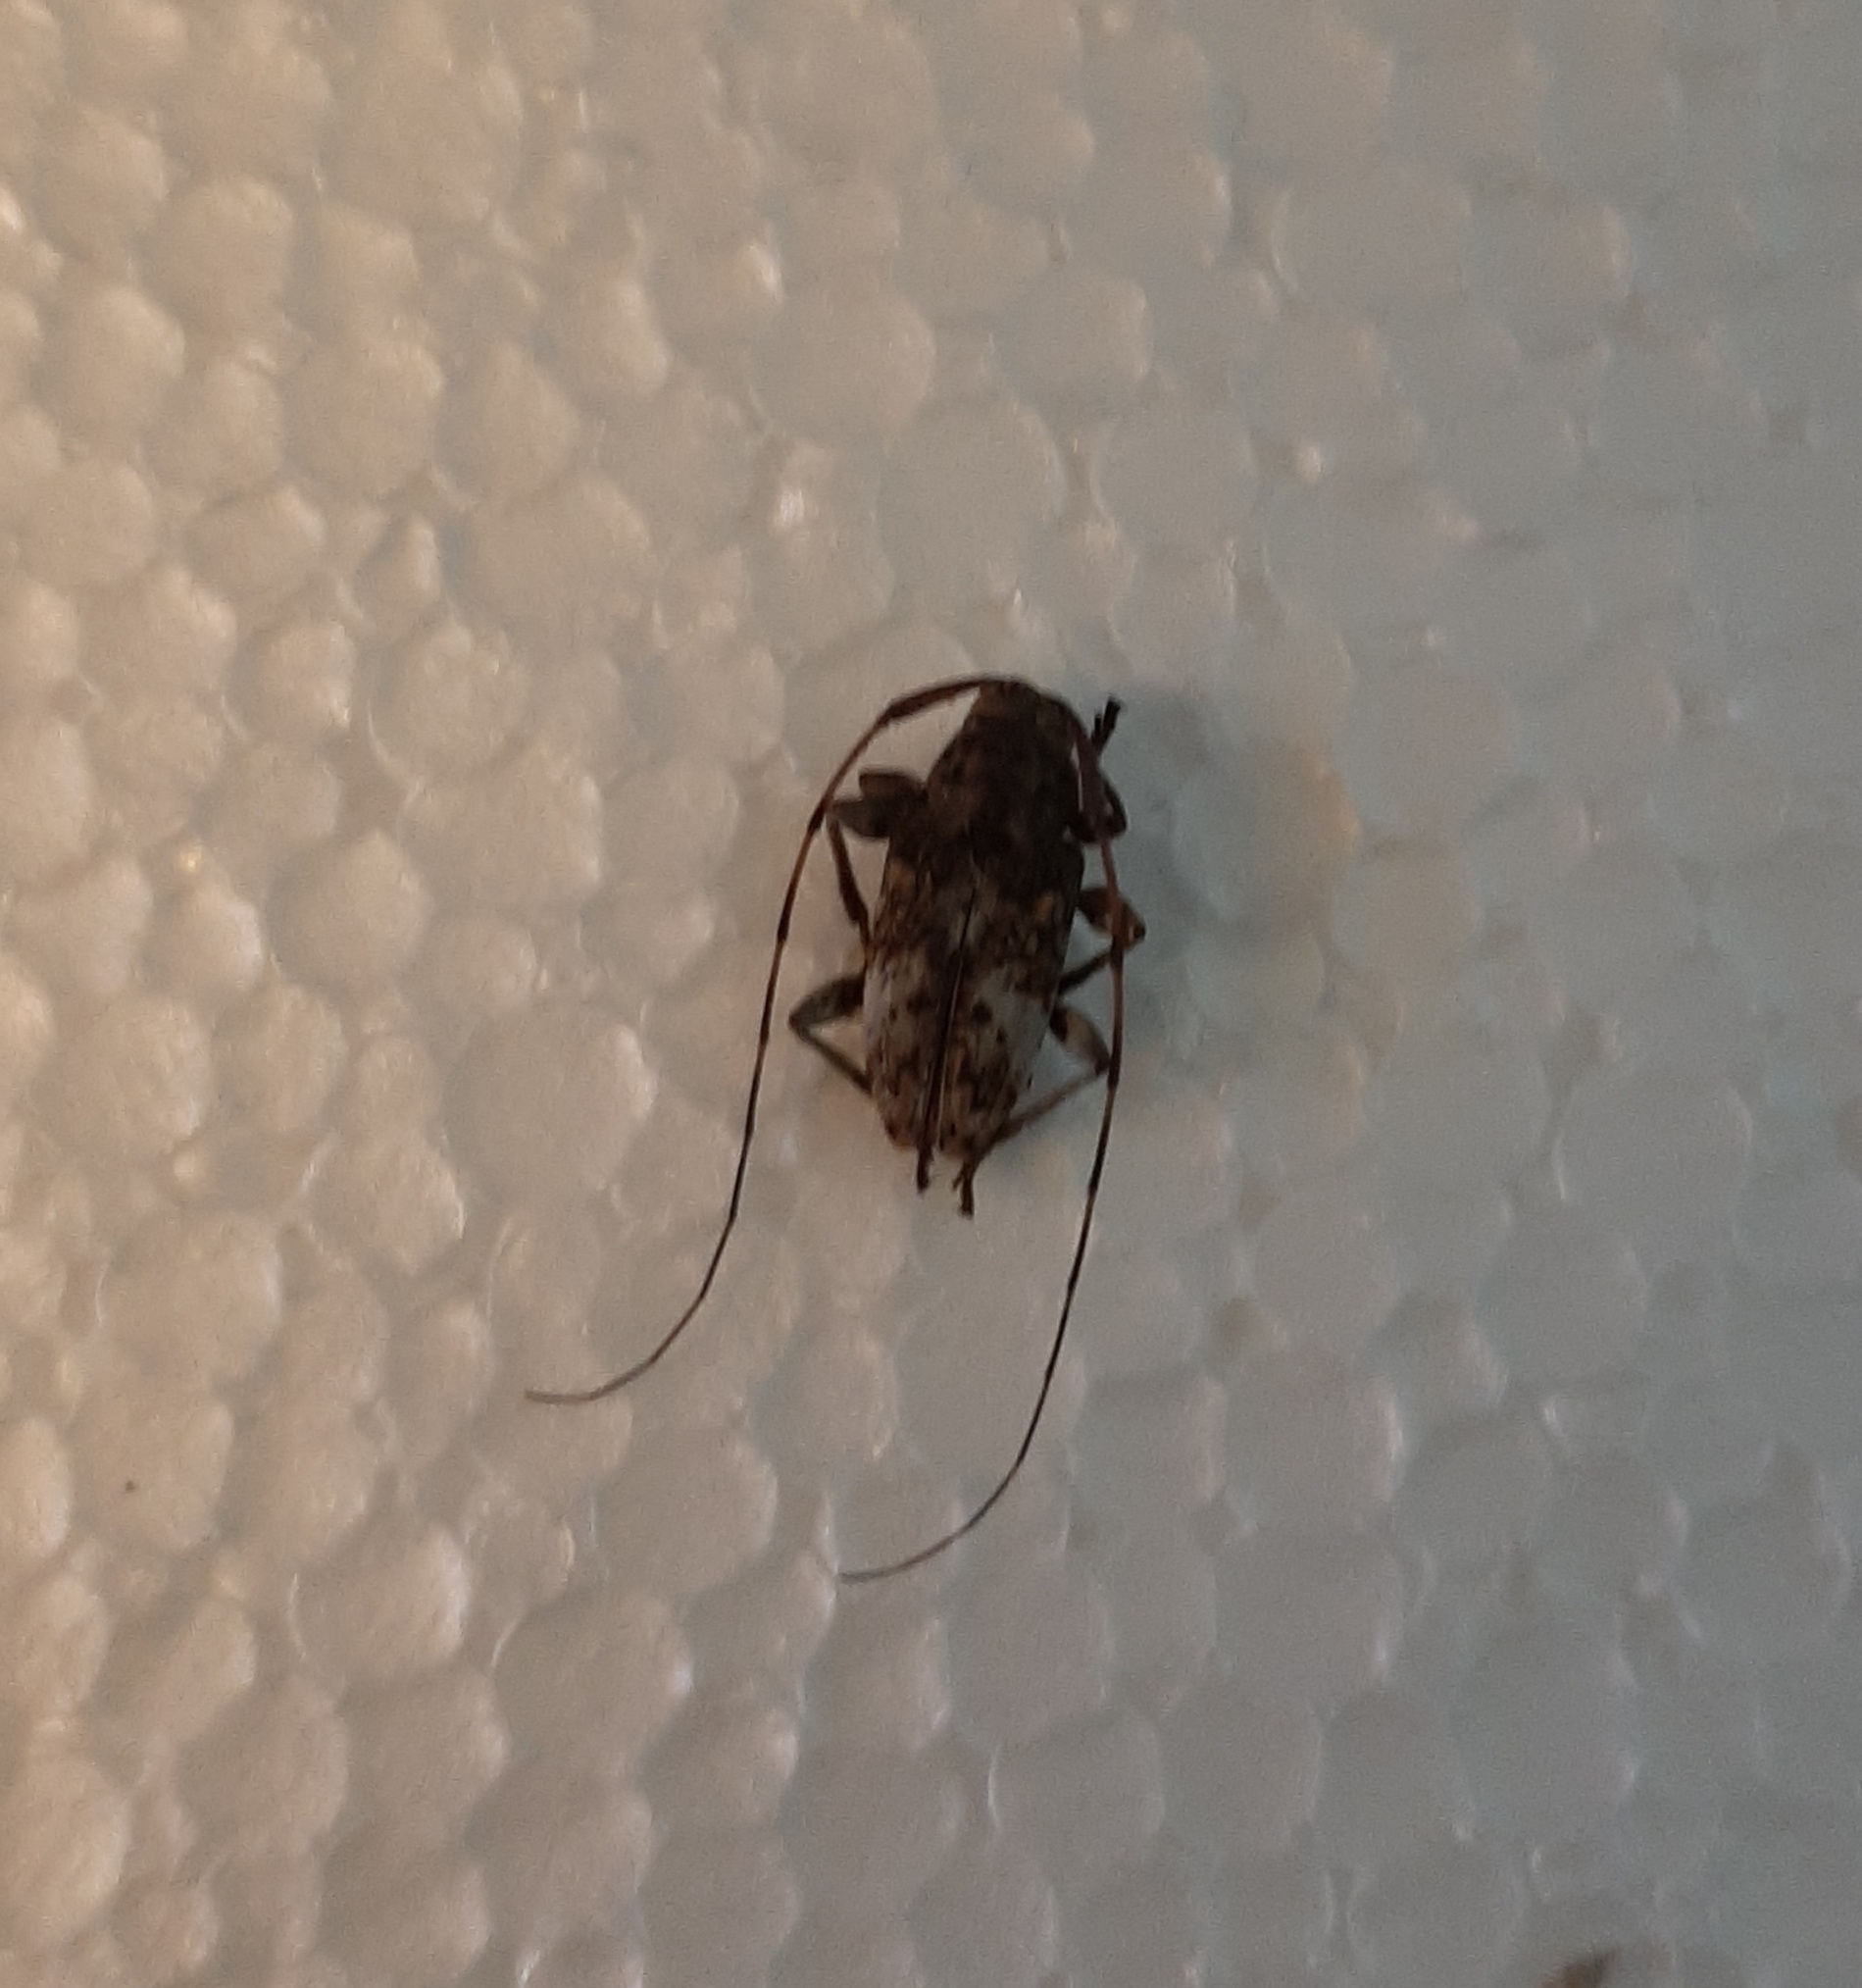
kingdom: Animalia
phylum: Arthropoda
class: Insecta
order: Coleoptera
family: Cerambycidae
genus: Atrypanius
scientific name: Atrypanius conspersus
